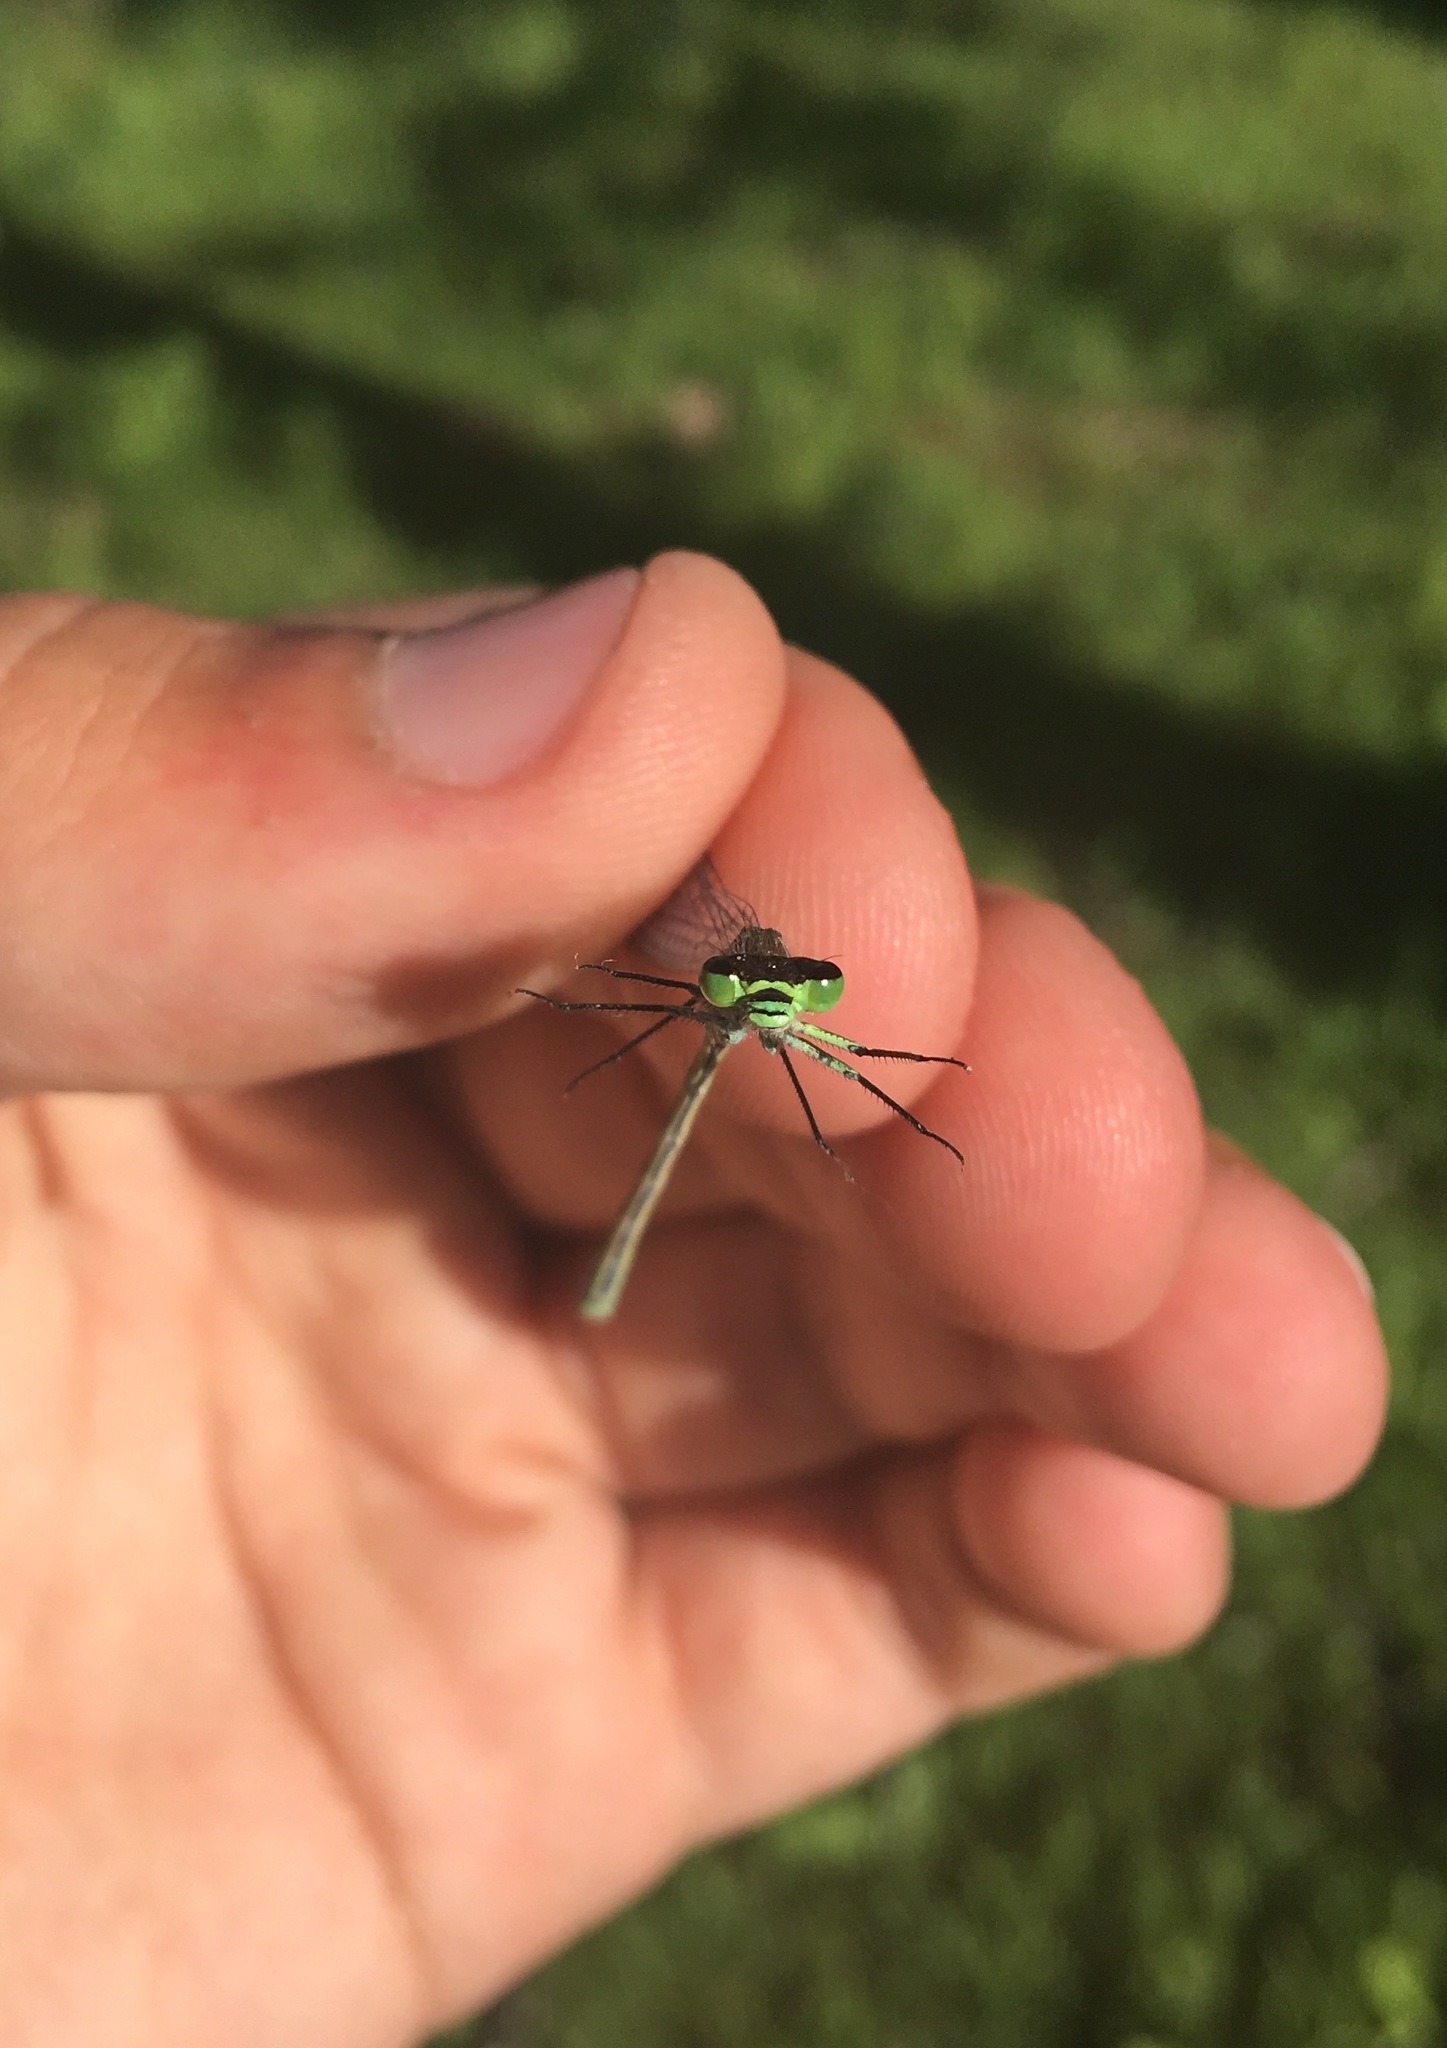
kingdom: Animalia
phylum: Arthropoda
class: Insecta
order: Odonata
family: Coenagrionidae
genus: Coenagrion
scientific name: Coenagrion lunulatum
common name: Irish damselfly
